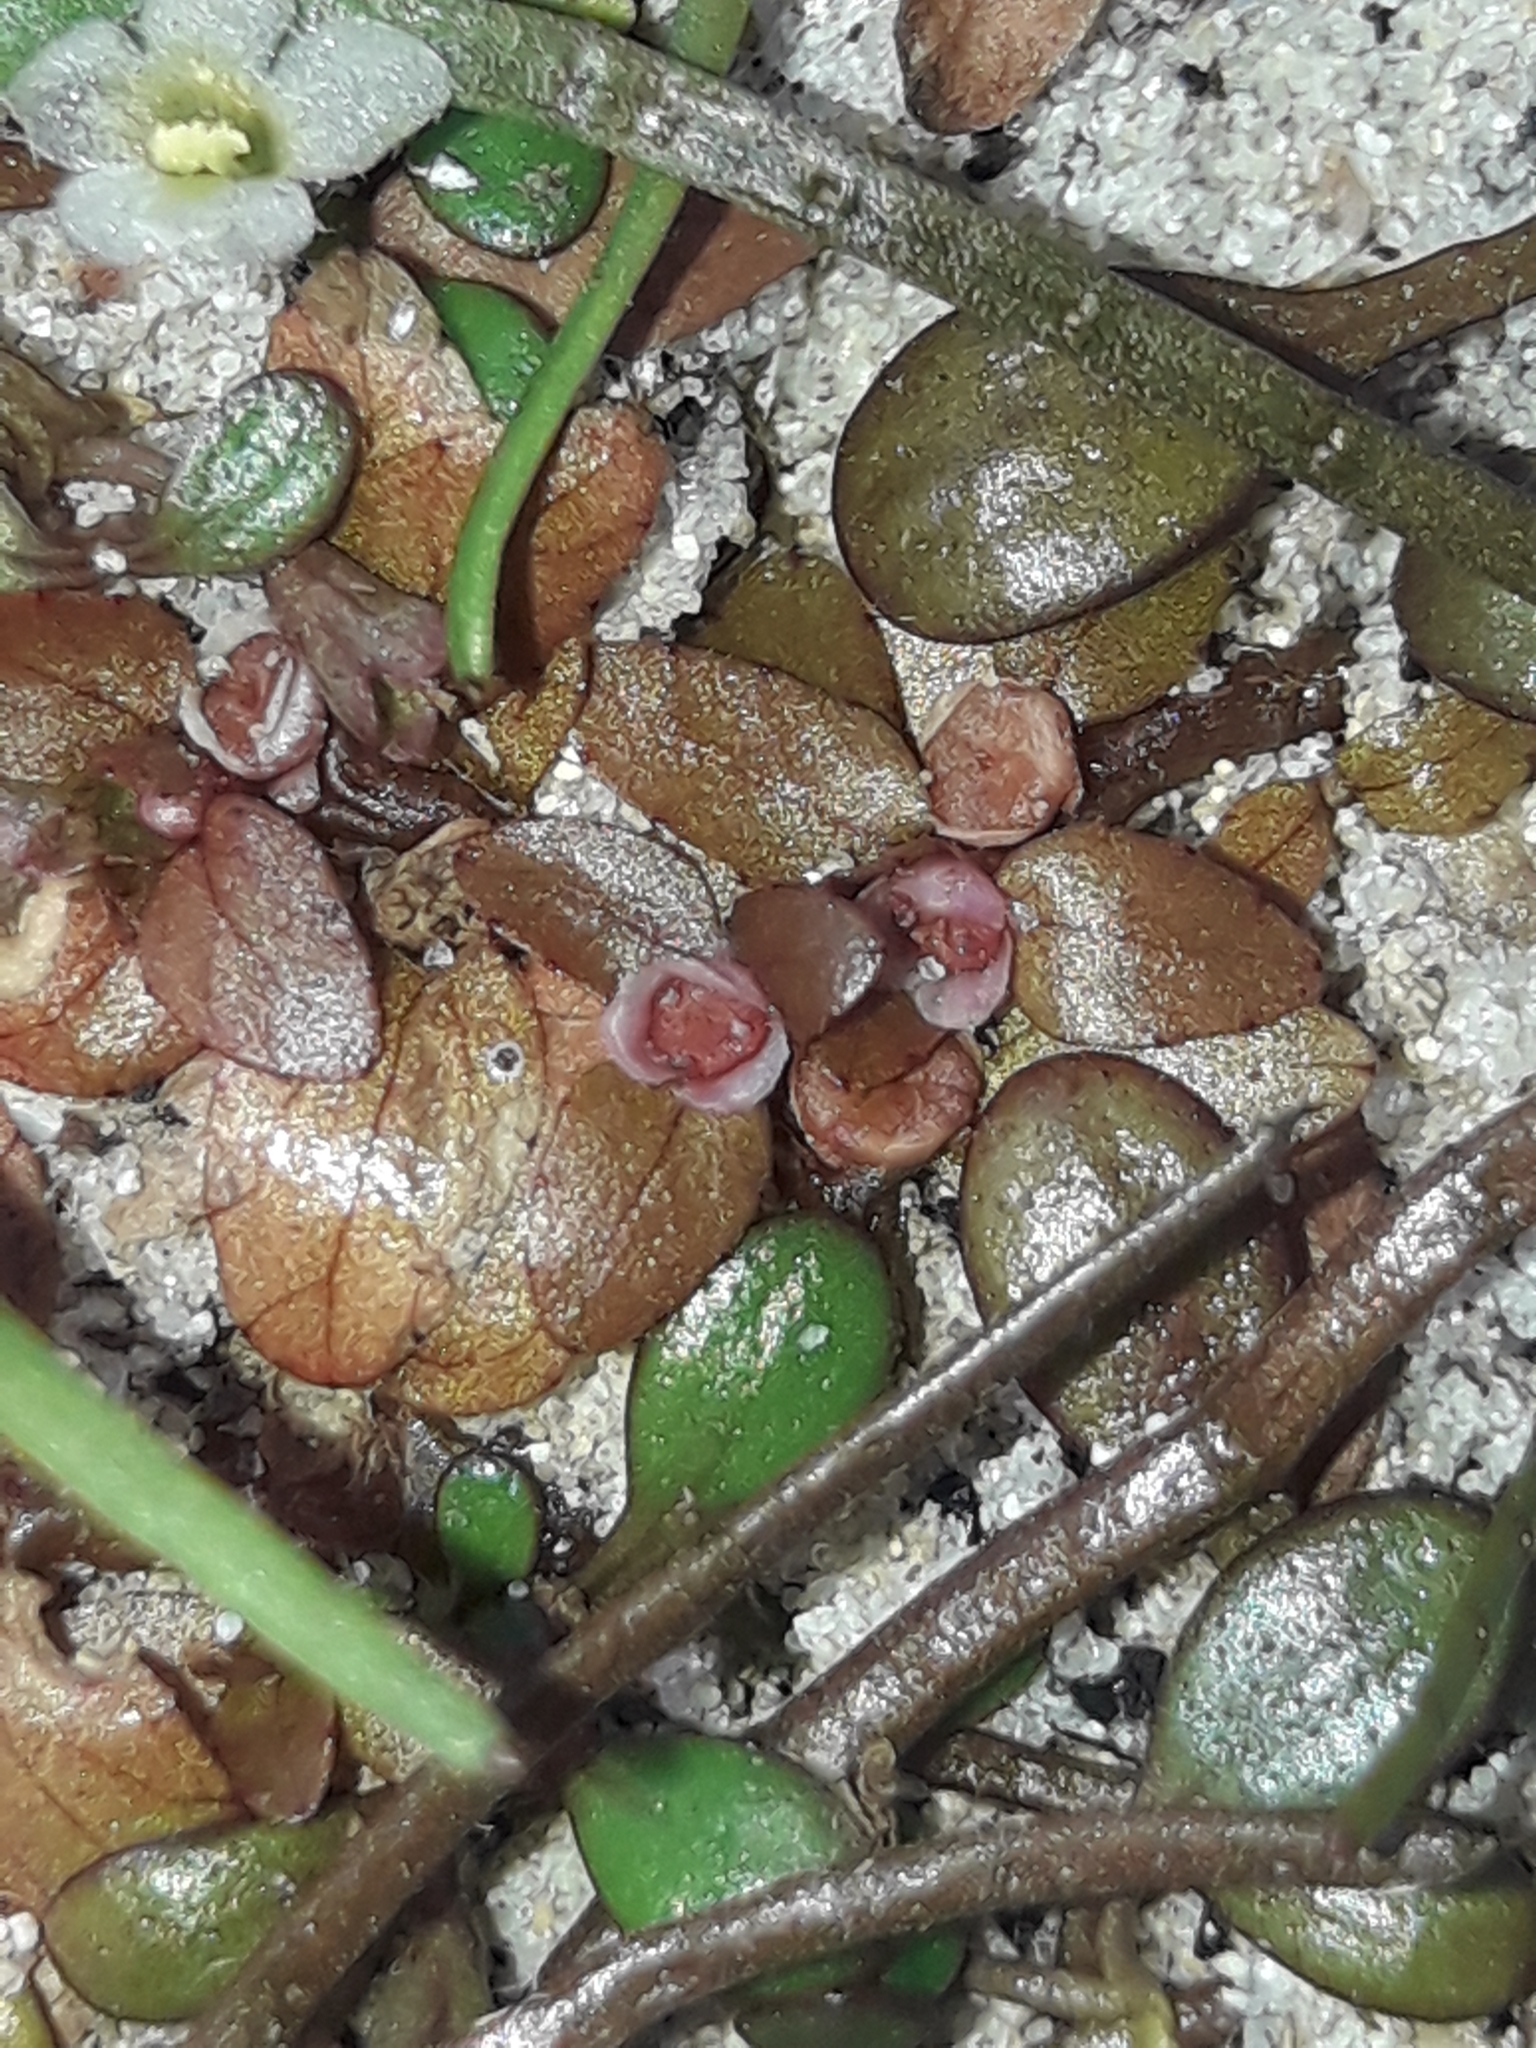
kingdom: Plantae
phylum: Tracheophyta
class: Magnoliopsida
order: Malpighiales
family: Elatinaceae
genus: Elatine
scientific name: Elatine gratioloides
